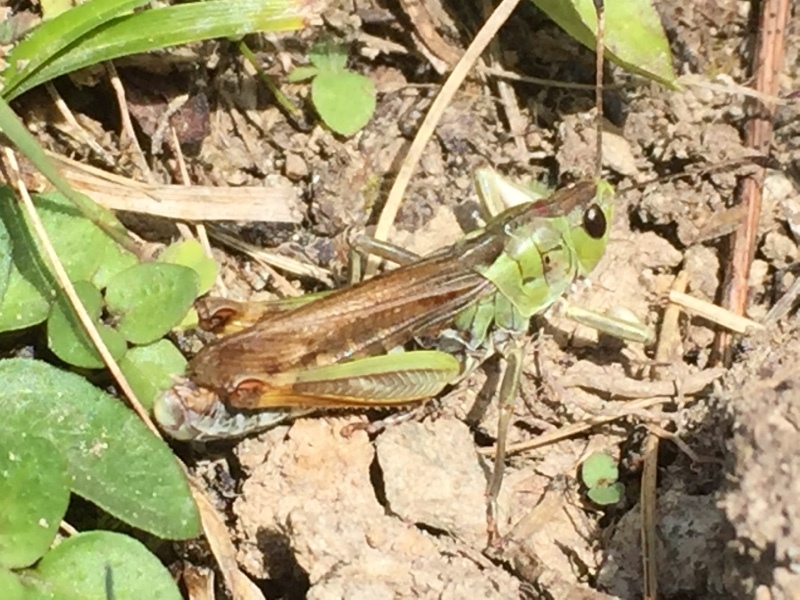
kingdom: Animalia
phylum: Arthropoda
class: Insecta
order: Orthoptera
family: Acrididae
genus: Gomphocerus
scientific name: Gomphocerus sibiricus
